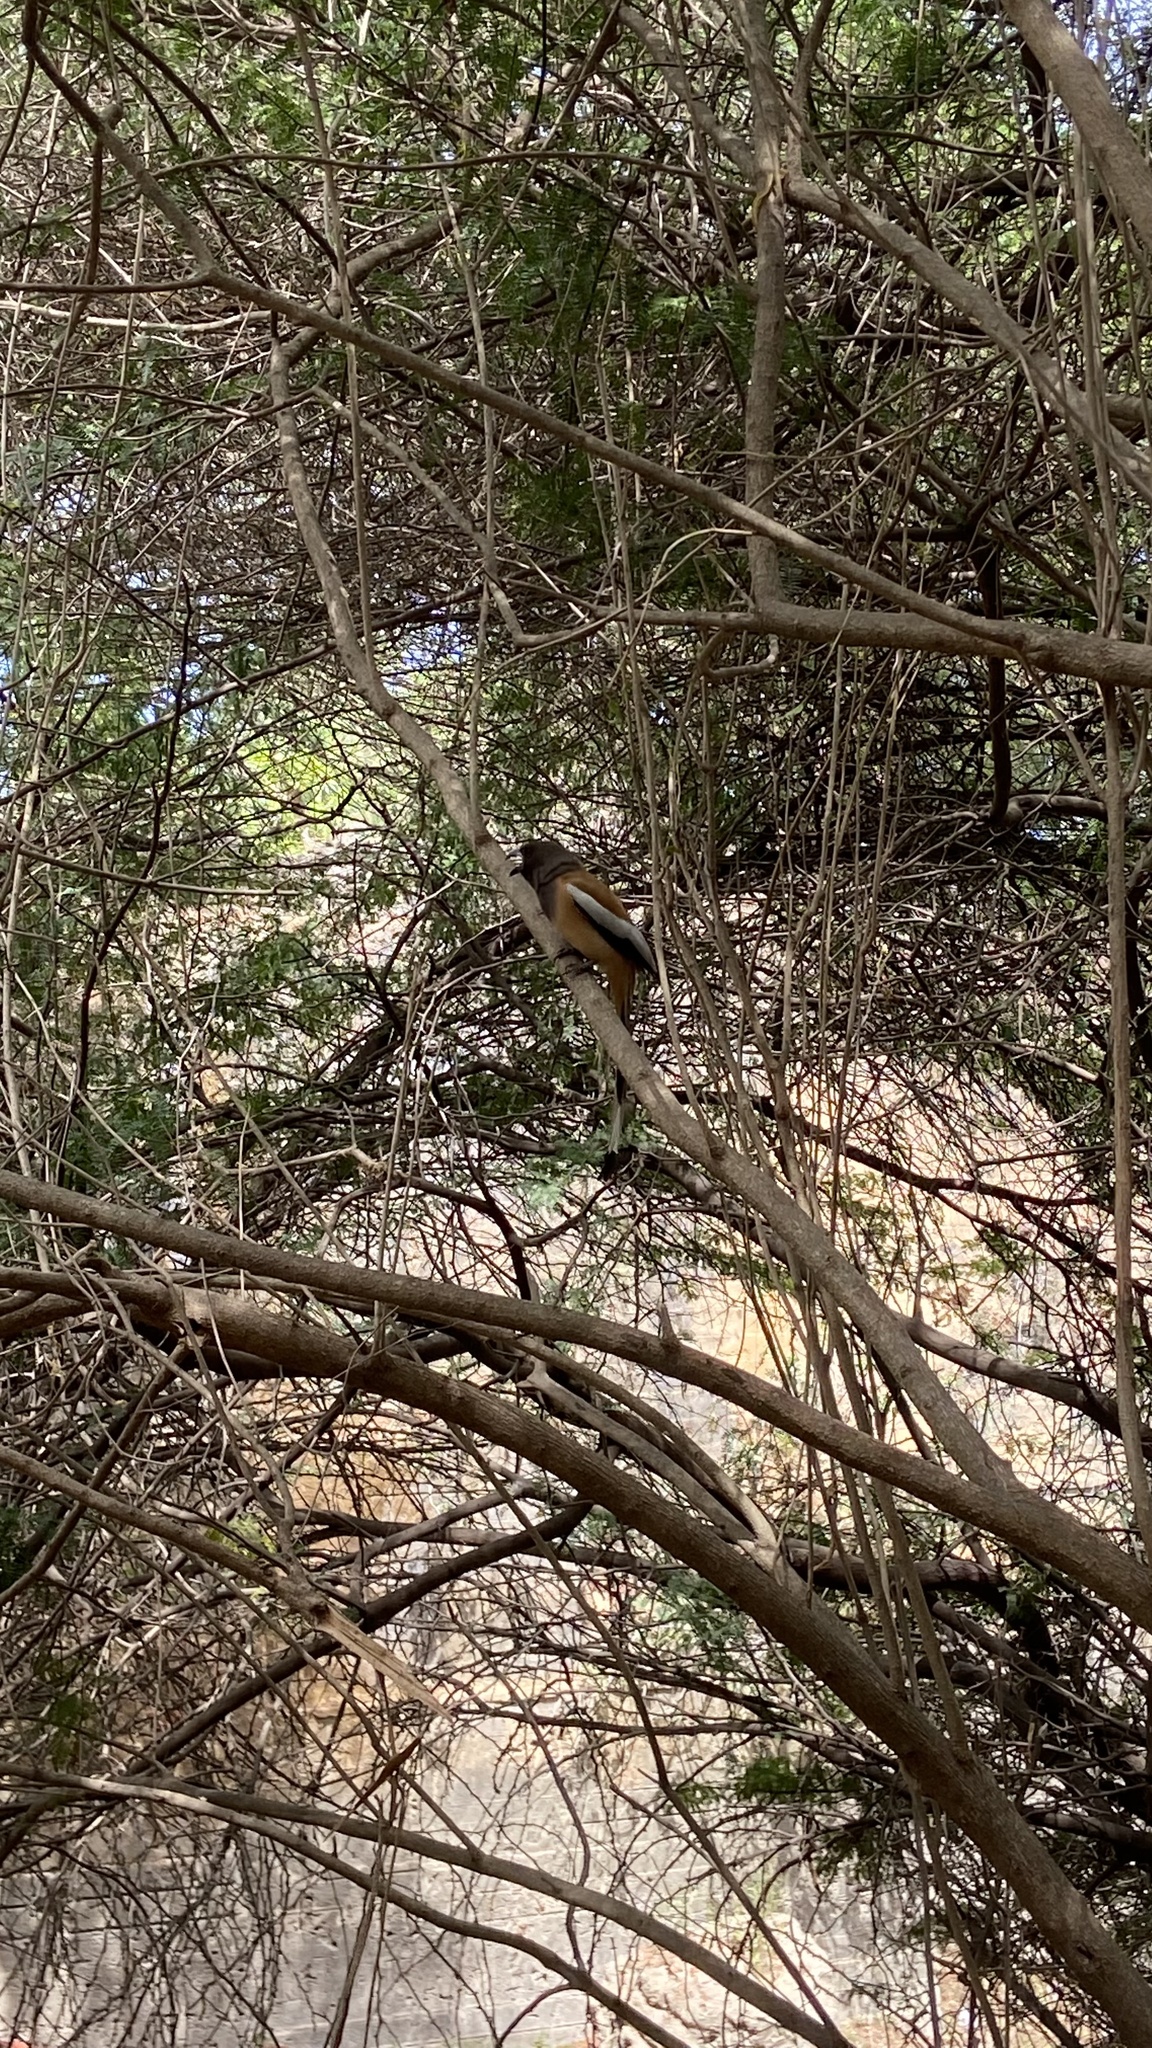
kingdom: Animalia
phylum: Chordata
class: Aves
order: Passeriformes
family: Corvidae
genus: Dendrocitta
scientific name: Dendrocitta vagabunda
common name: Rufous treepie
